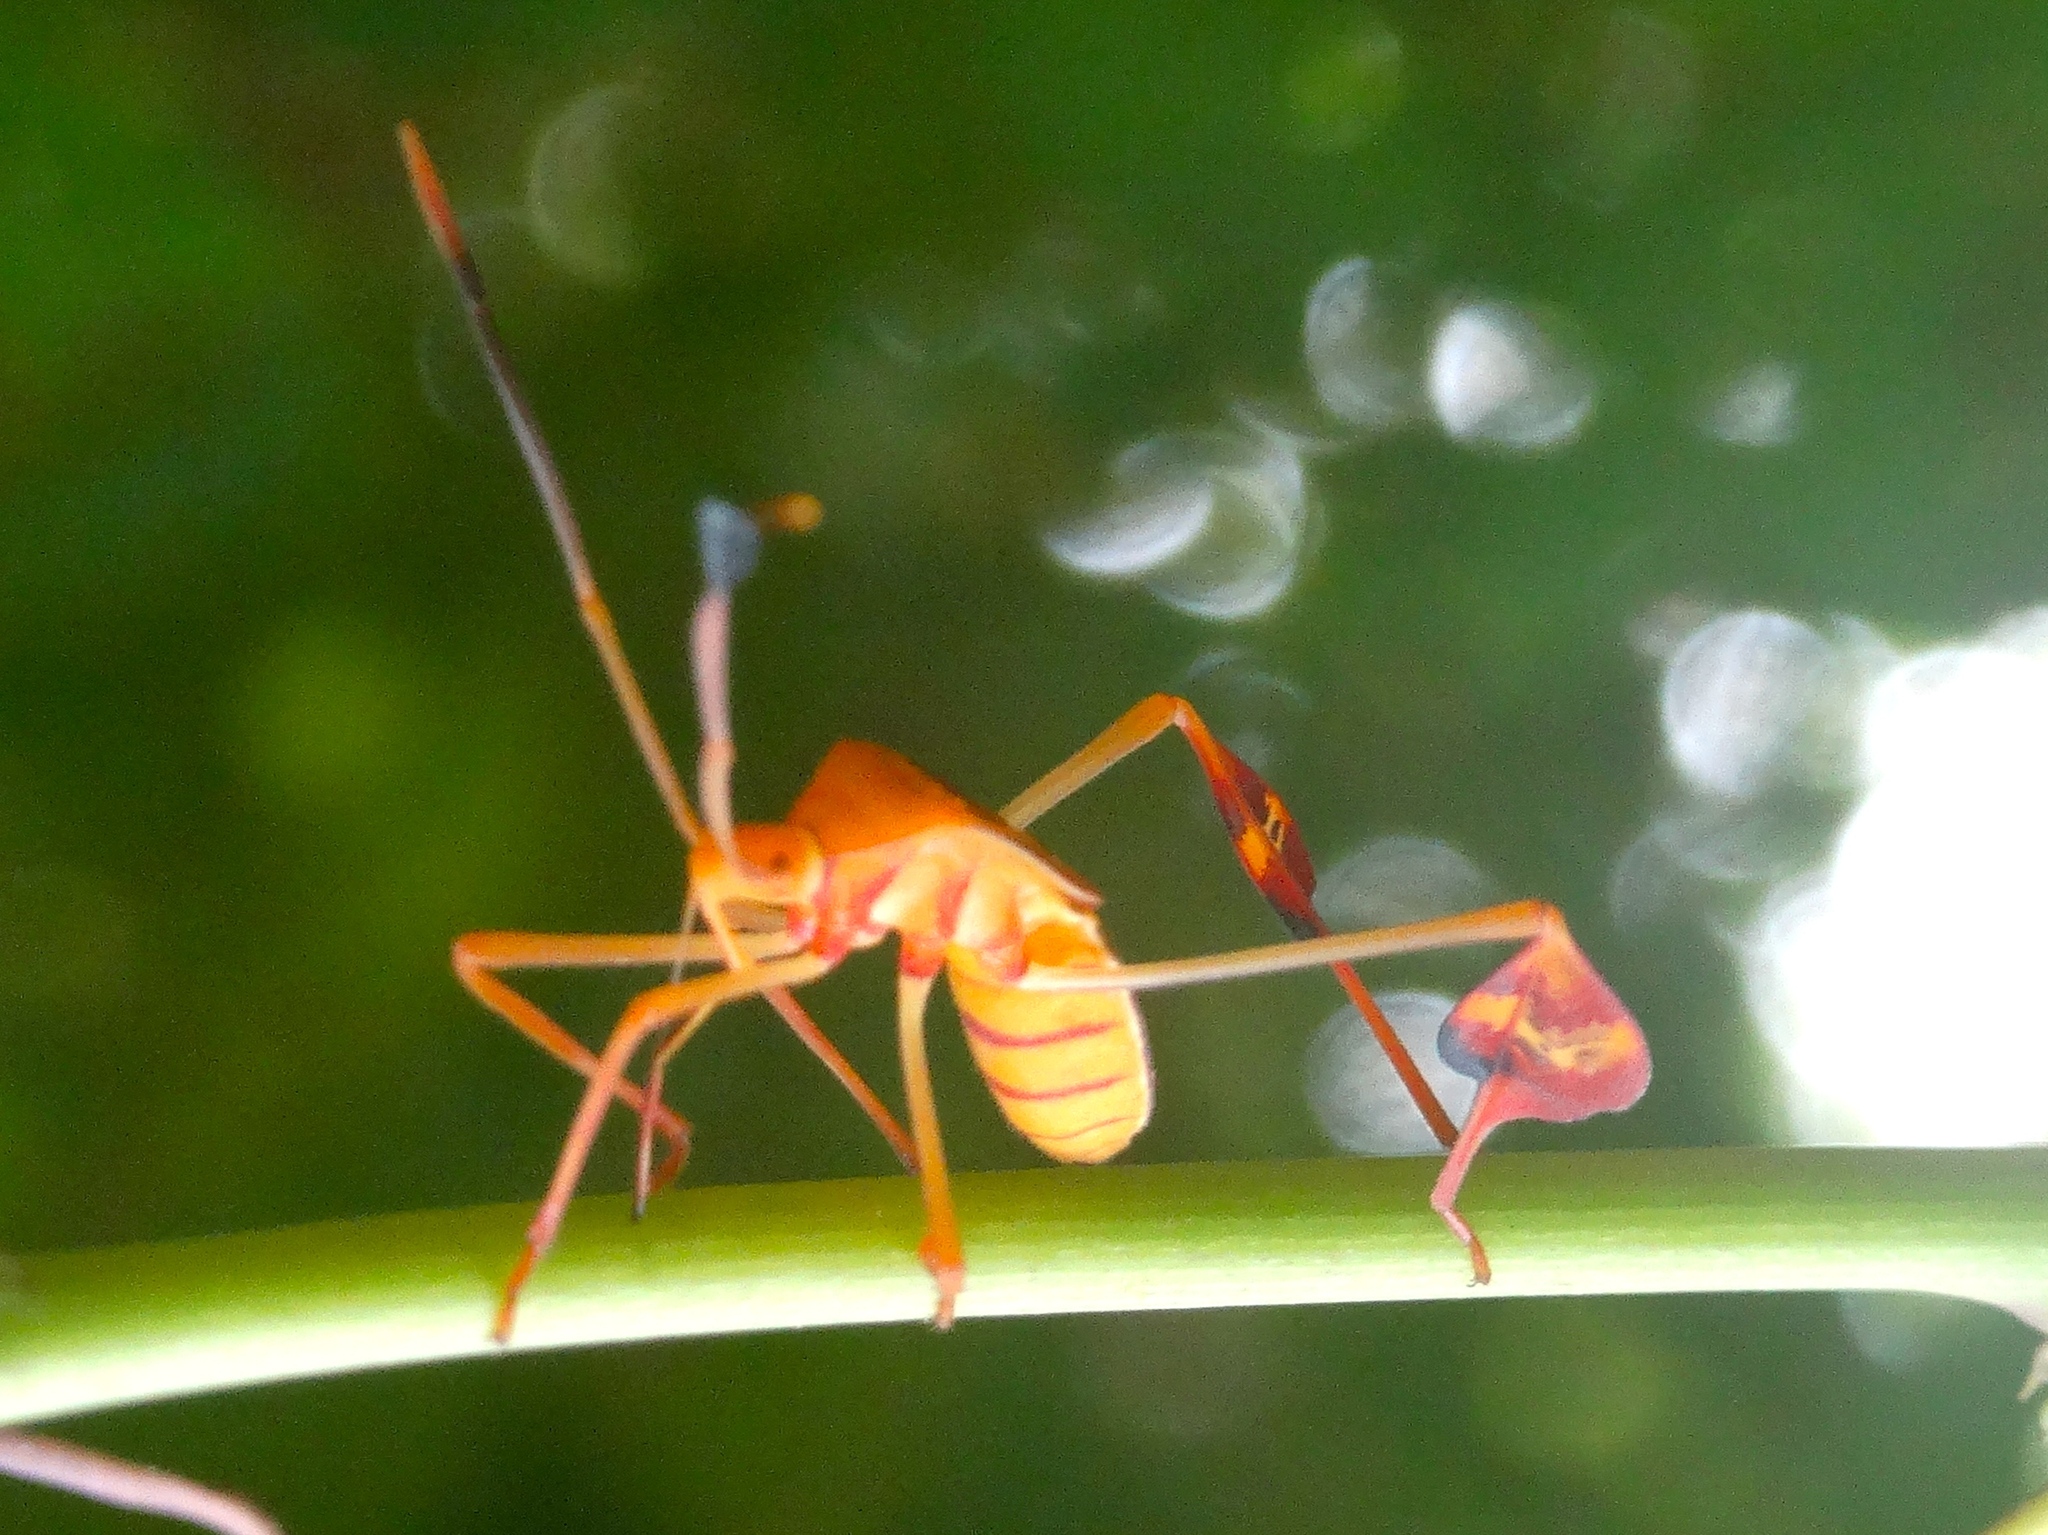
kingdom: Animalia
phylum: Arthropoda
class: Insecta
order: Hemiptera
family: Coreidae
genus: Bitta
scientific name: Bitta
